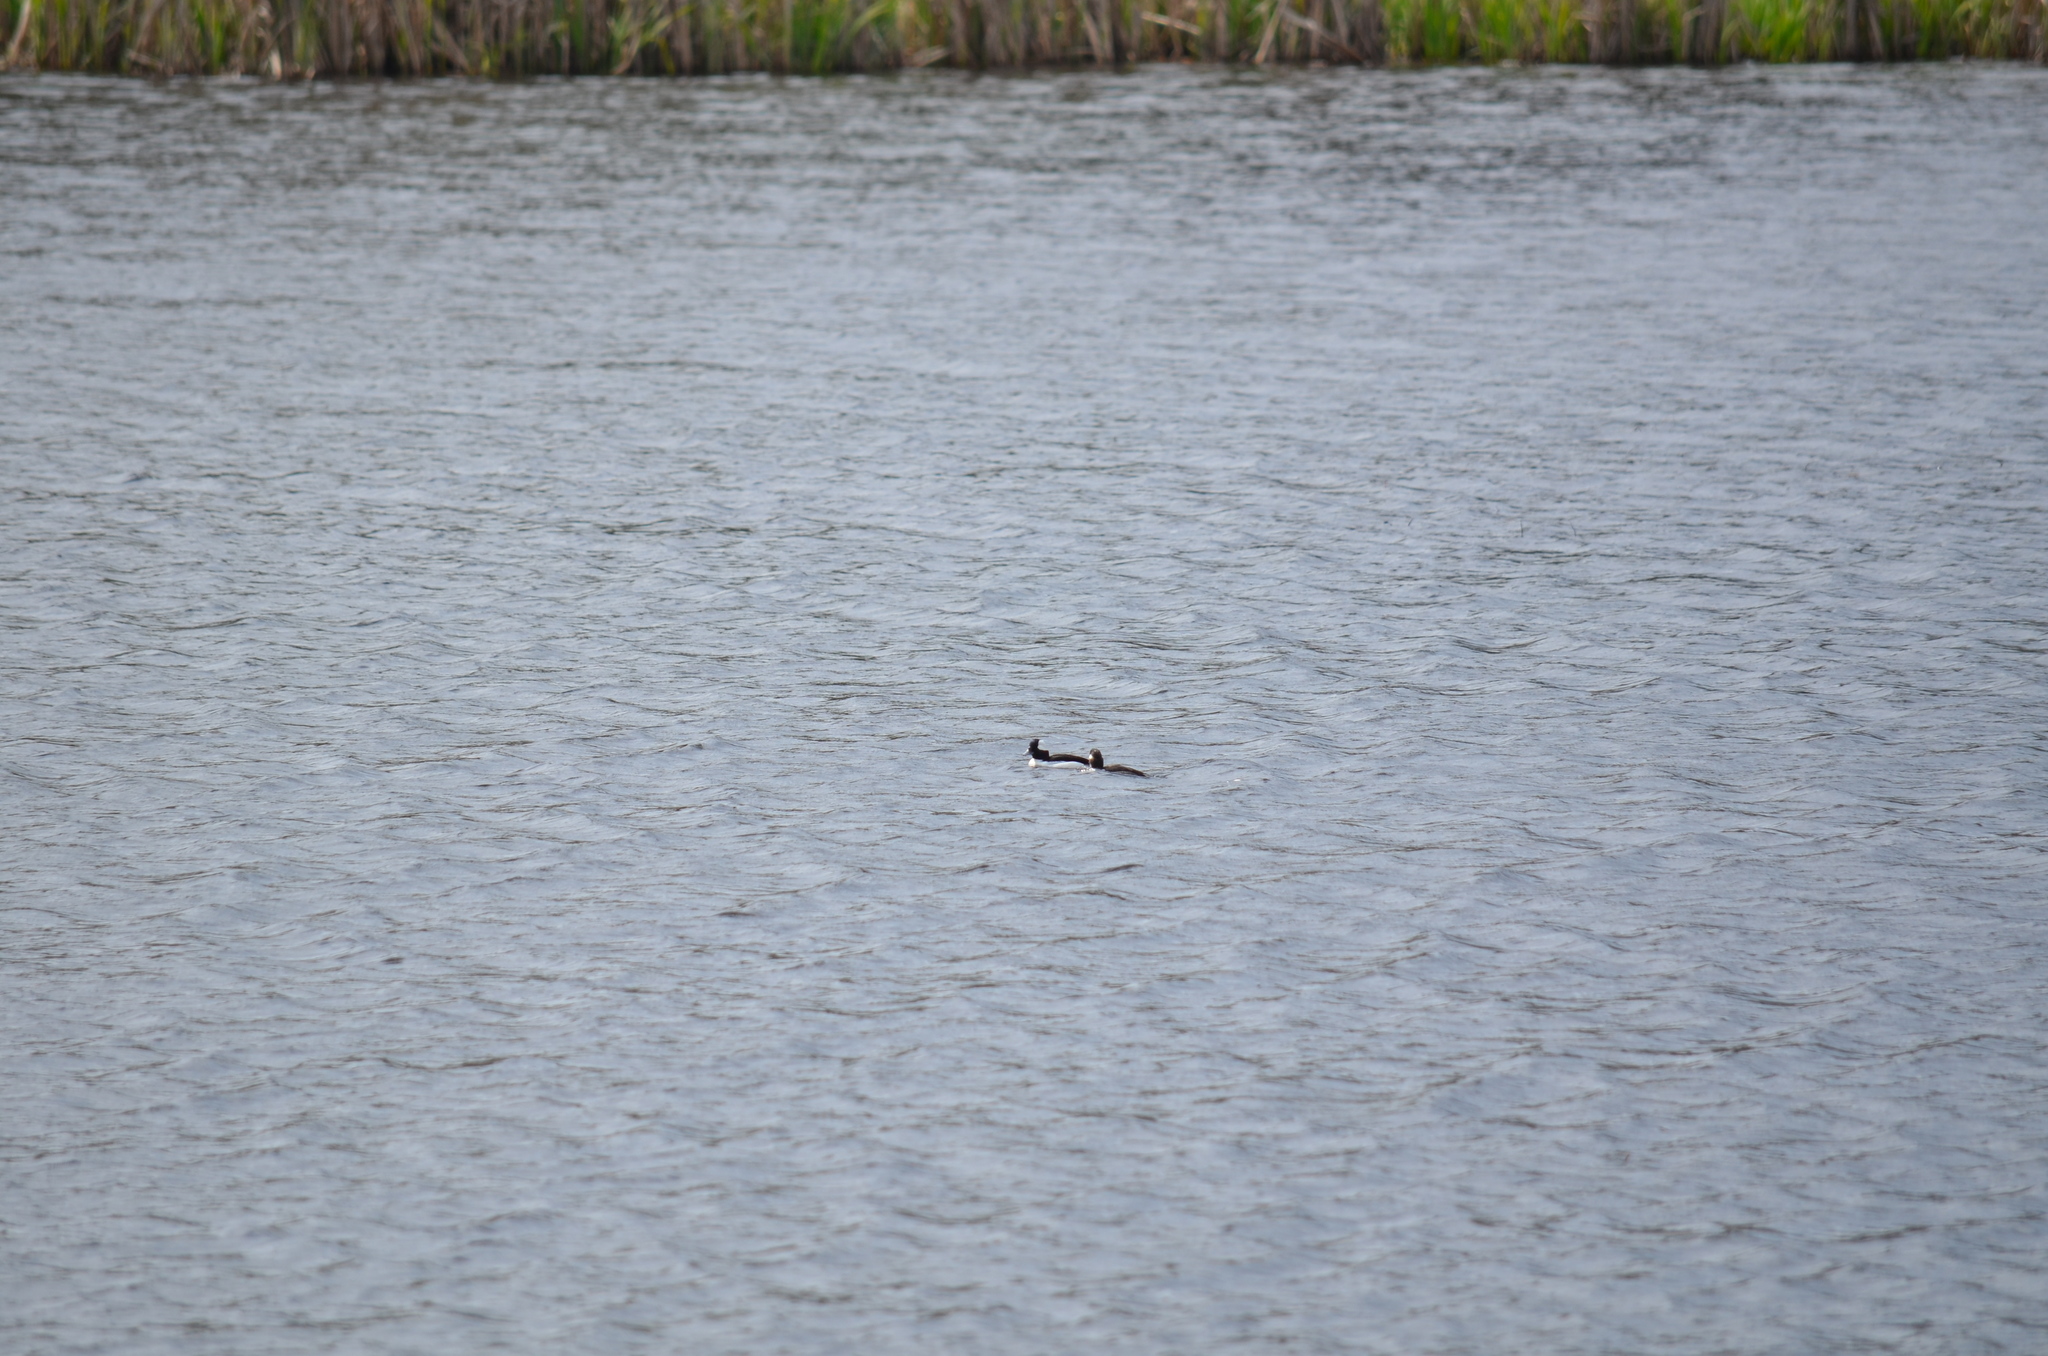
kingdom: Animalia
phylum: Chordata
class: Aves
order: Anseriformes
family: Anatidae
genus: Bucephala
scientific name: Bucephala albeola
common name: Bufflehead
